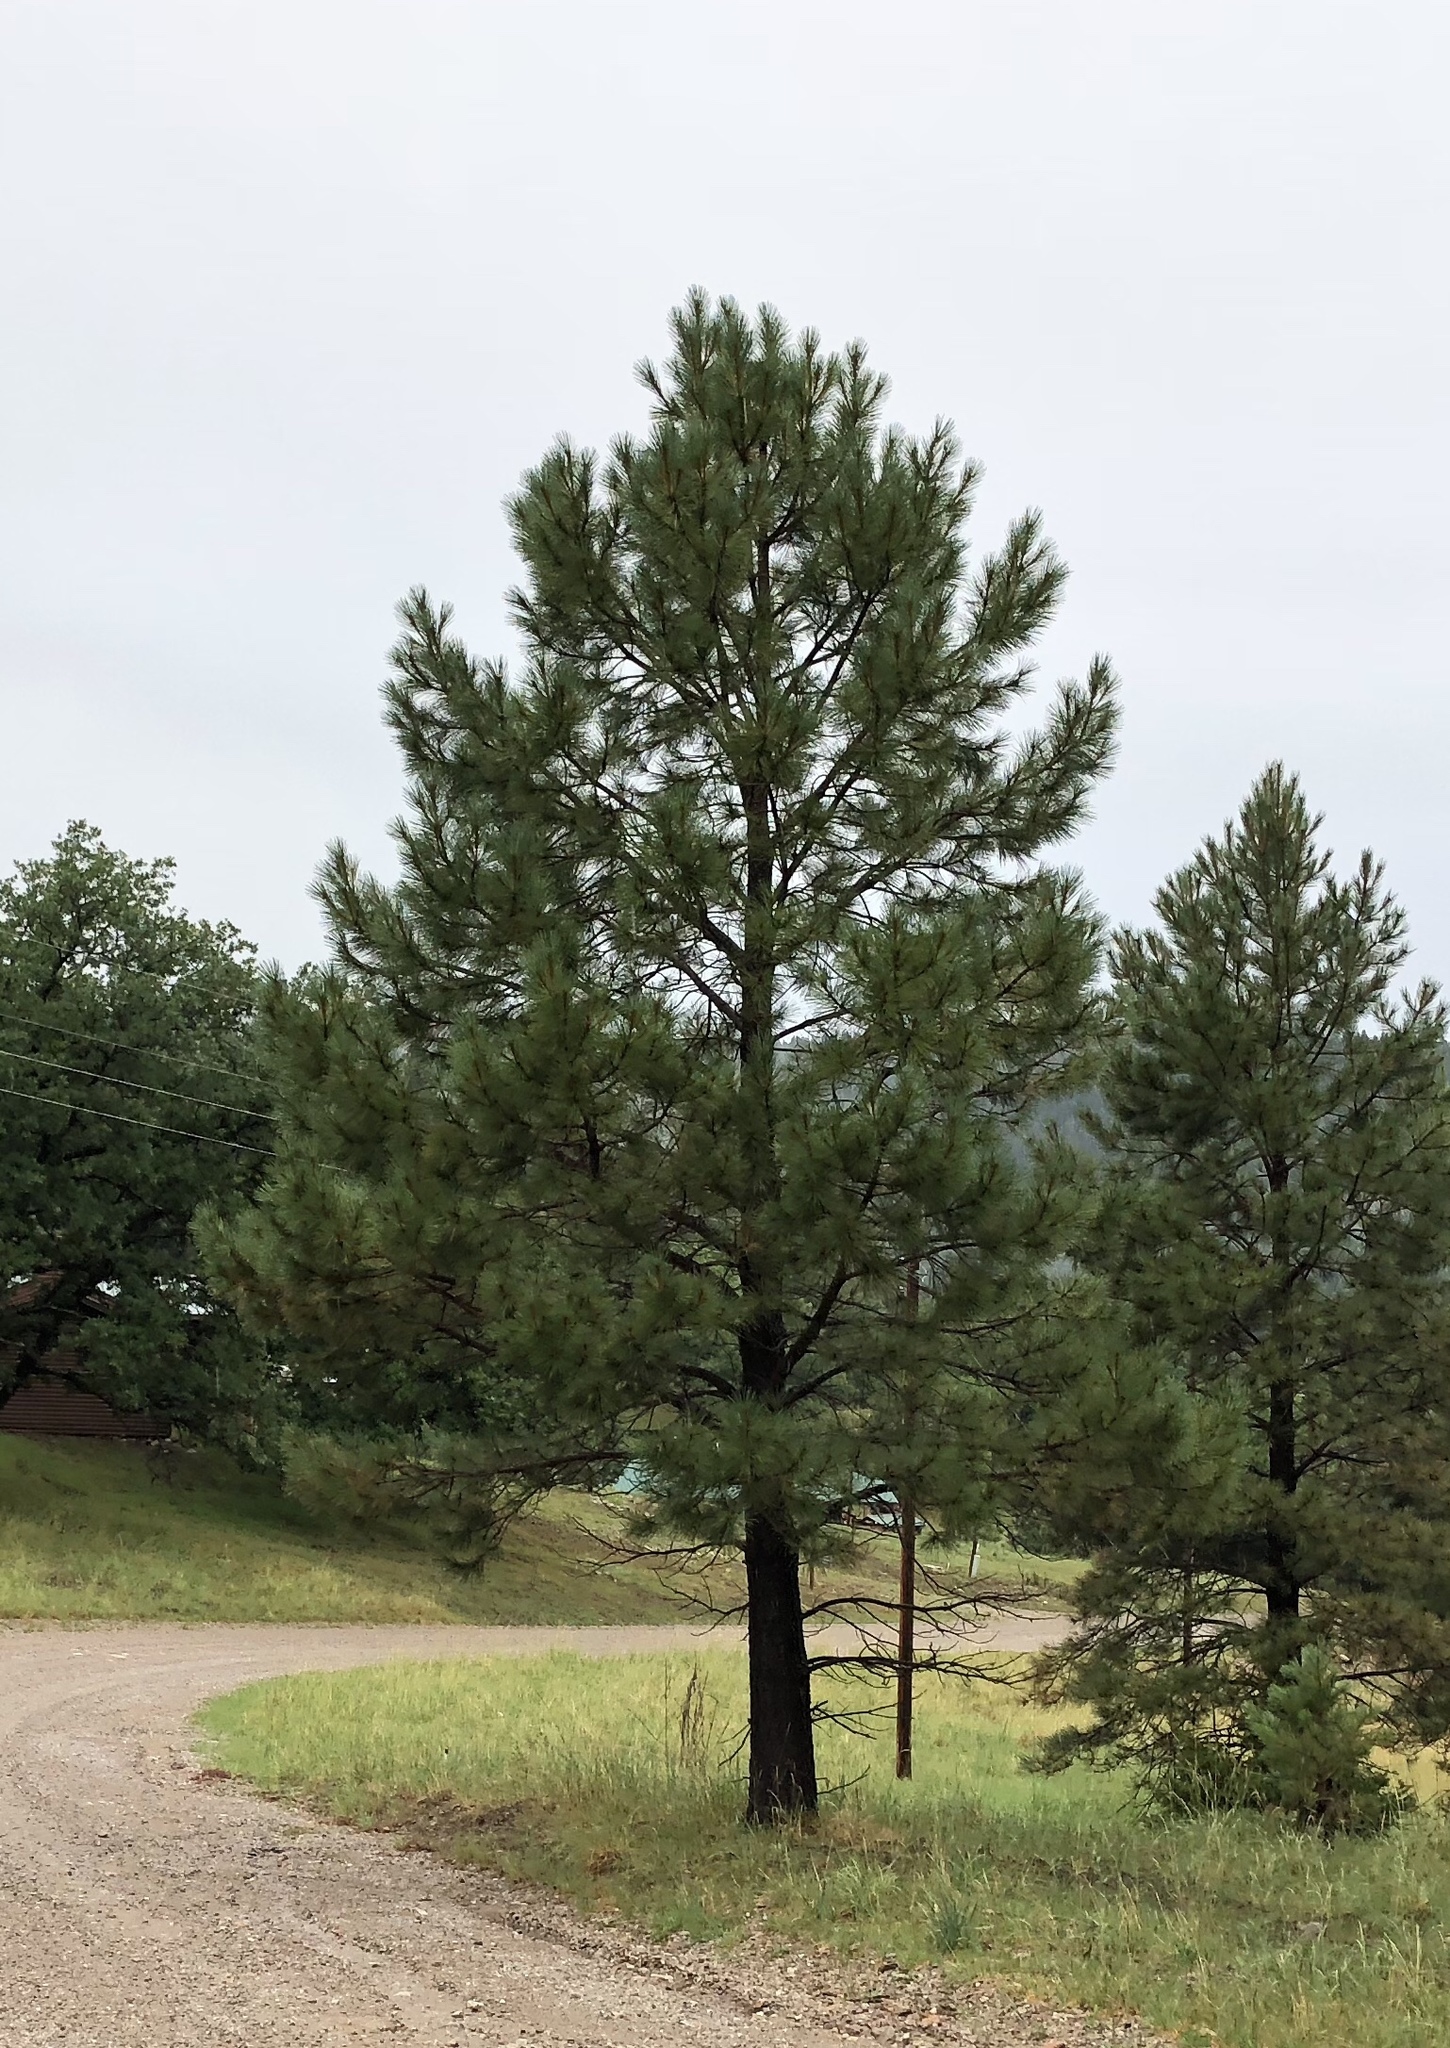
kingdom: Plantae
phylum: Tracheophyta
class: Pinopsida
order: Pinales
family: Pinaceae
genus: Pinus
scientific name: Pinus ponderosa
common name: Western yellow-pine
